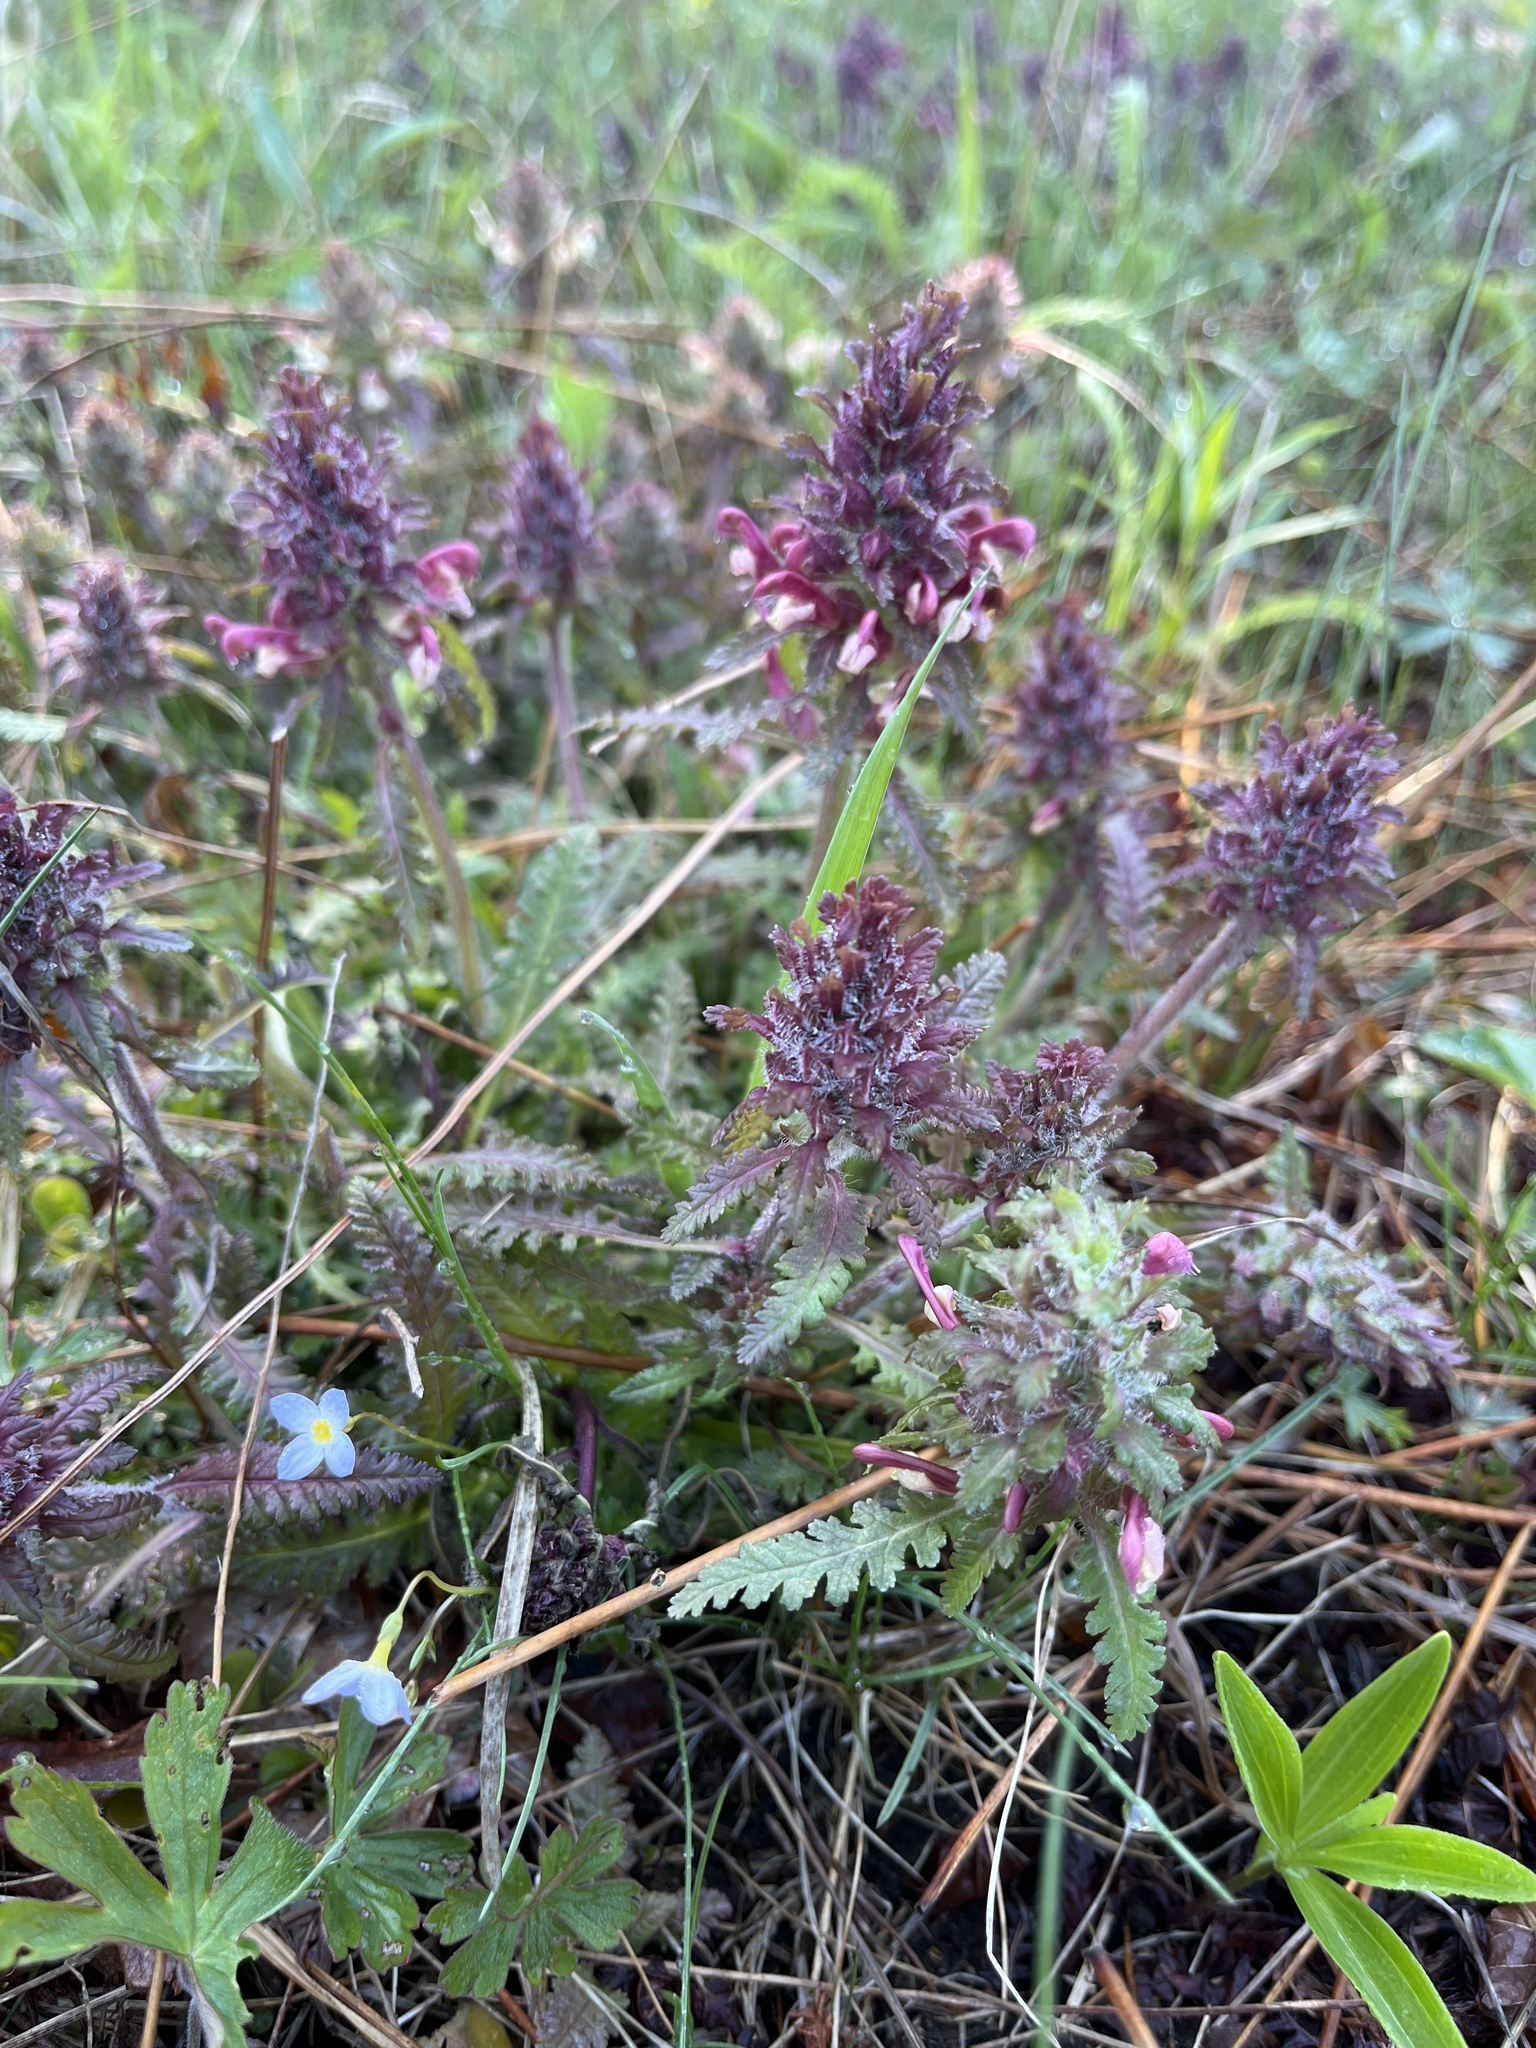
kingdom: Plantae
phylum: Tracheophyta
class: Magnoliopsida
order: Lamiales
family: Orobanchaceae
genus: Pedicularis
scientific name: Pedicularis canadensis
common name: Early lousewort
